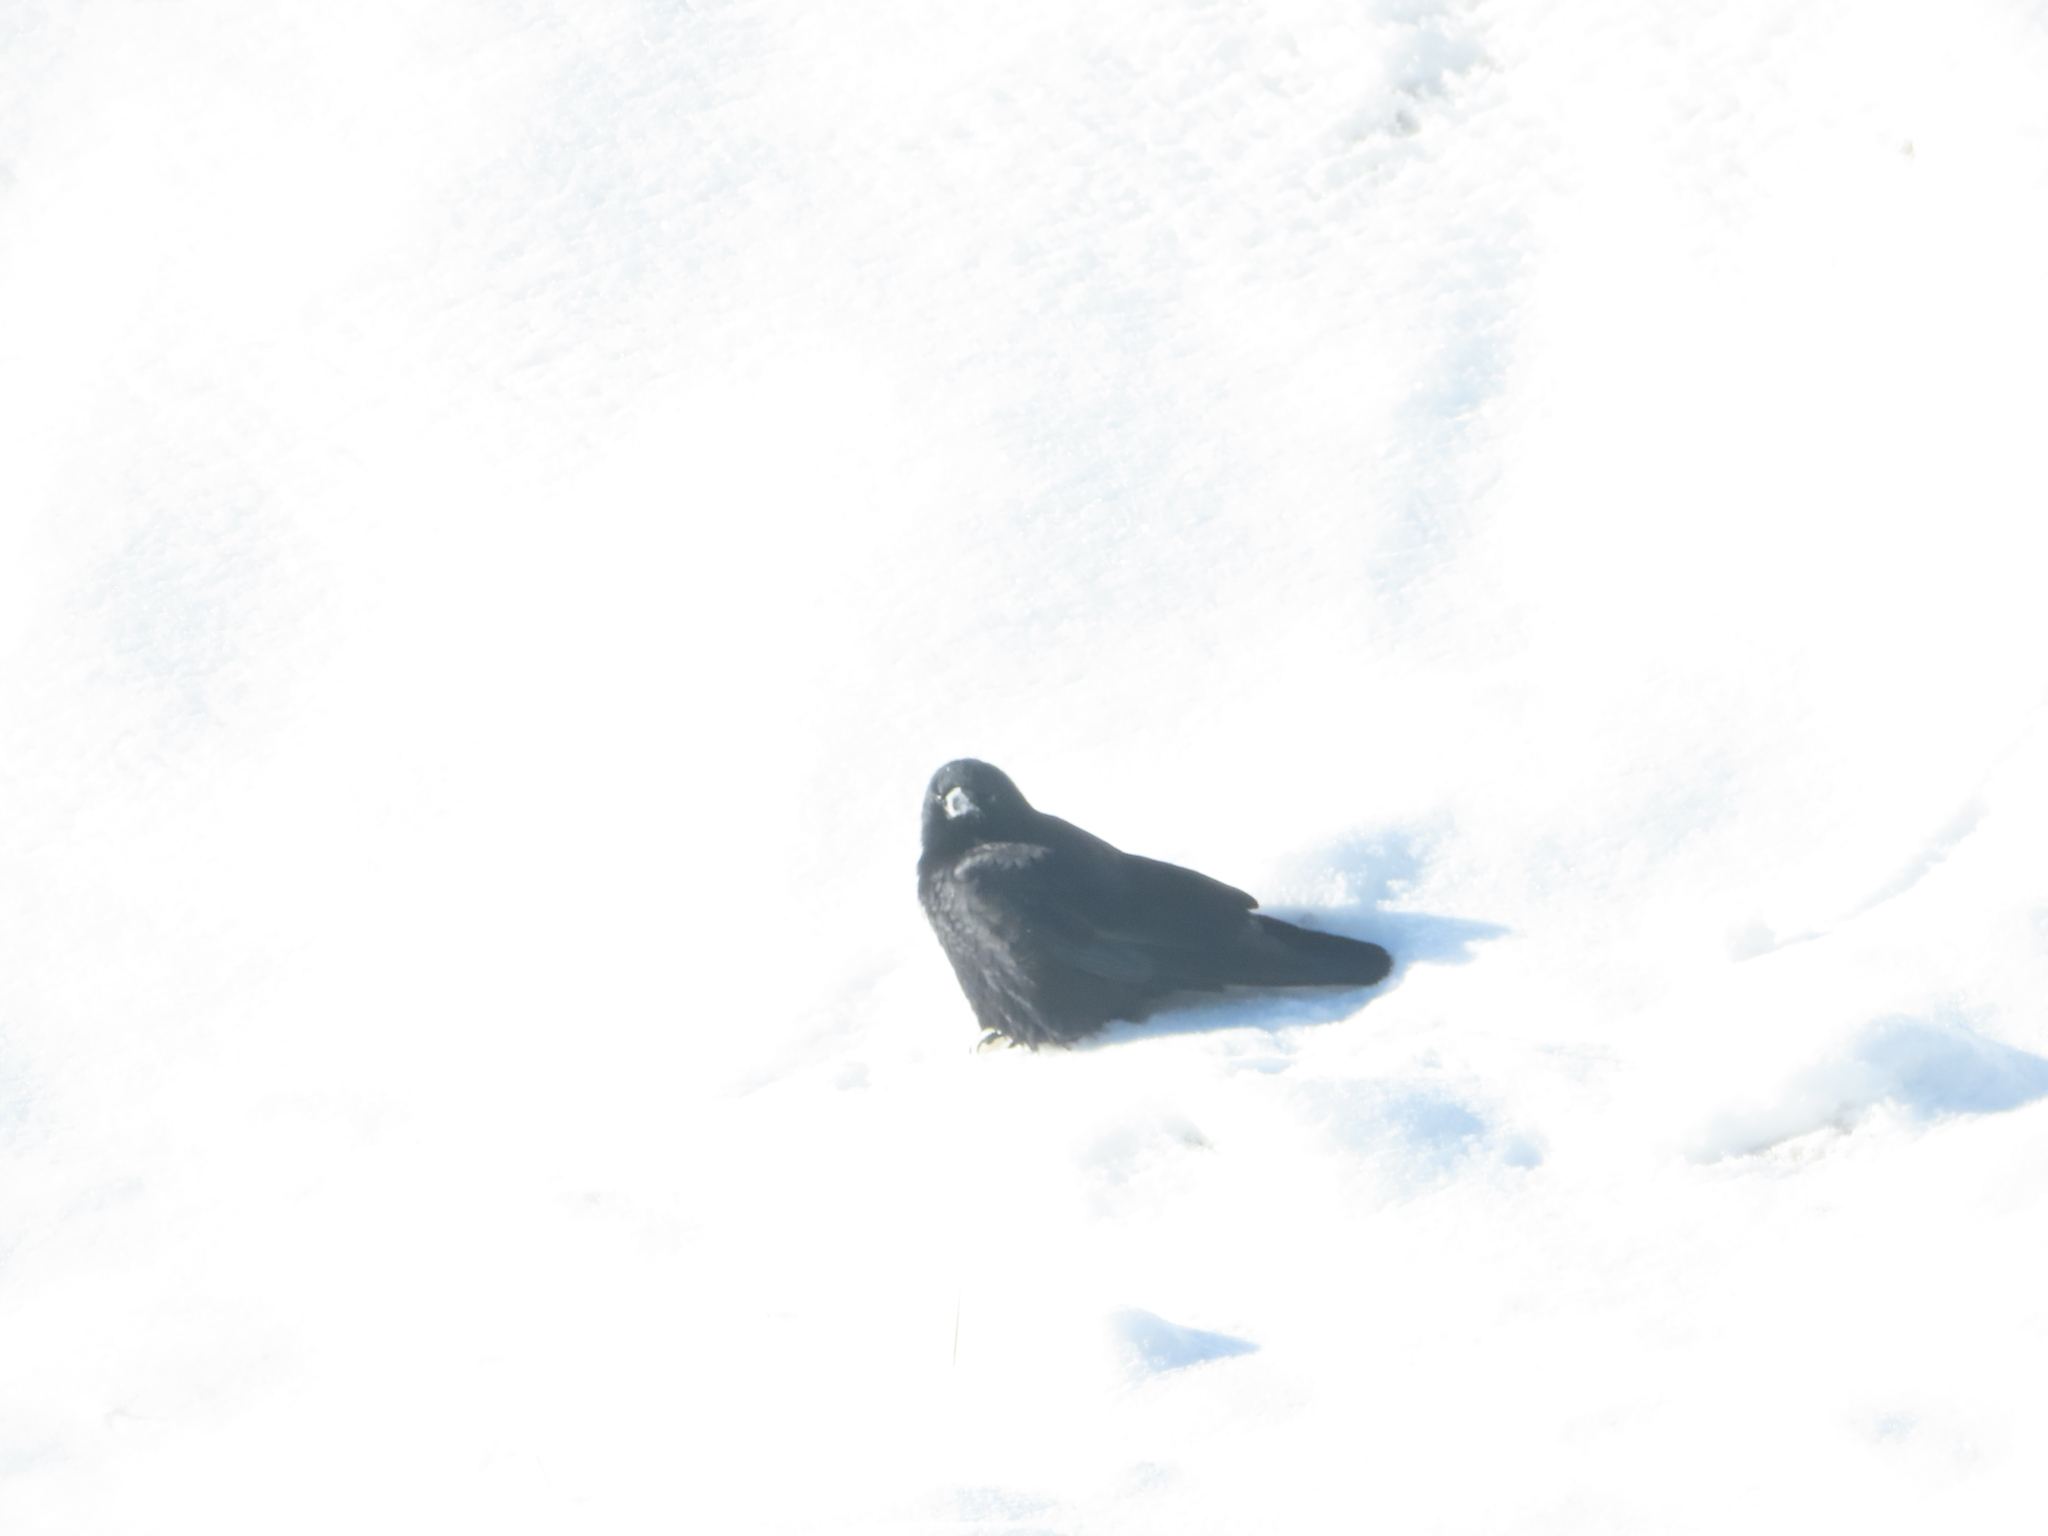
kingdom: Animalia
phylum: Chordata
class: Aves
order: Passeriformes
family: Corvidae
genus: Corvus
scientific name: Corvus corax
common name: Common raven
